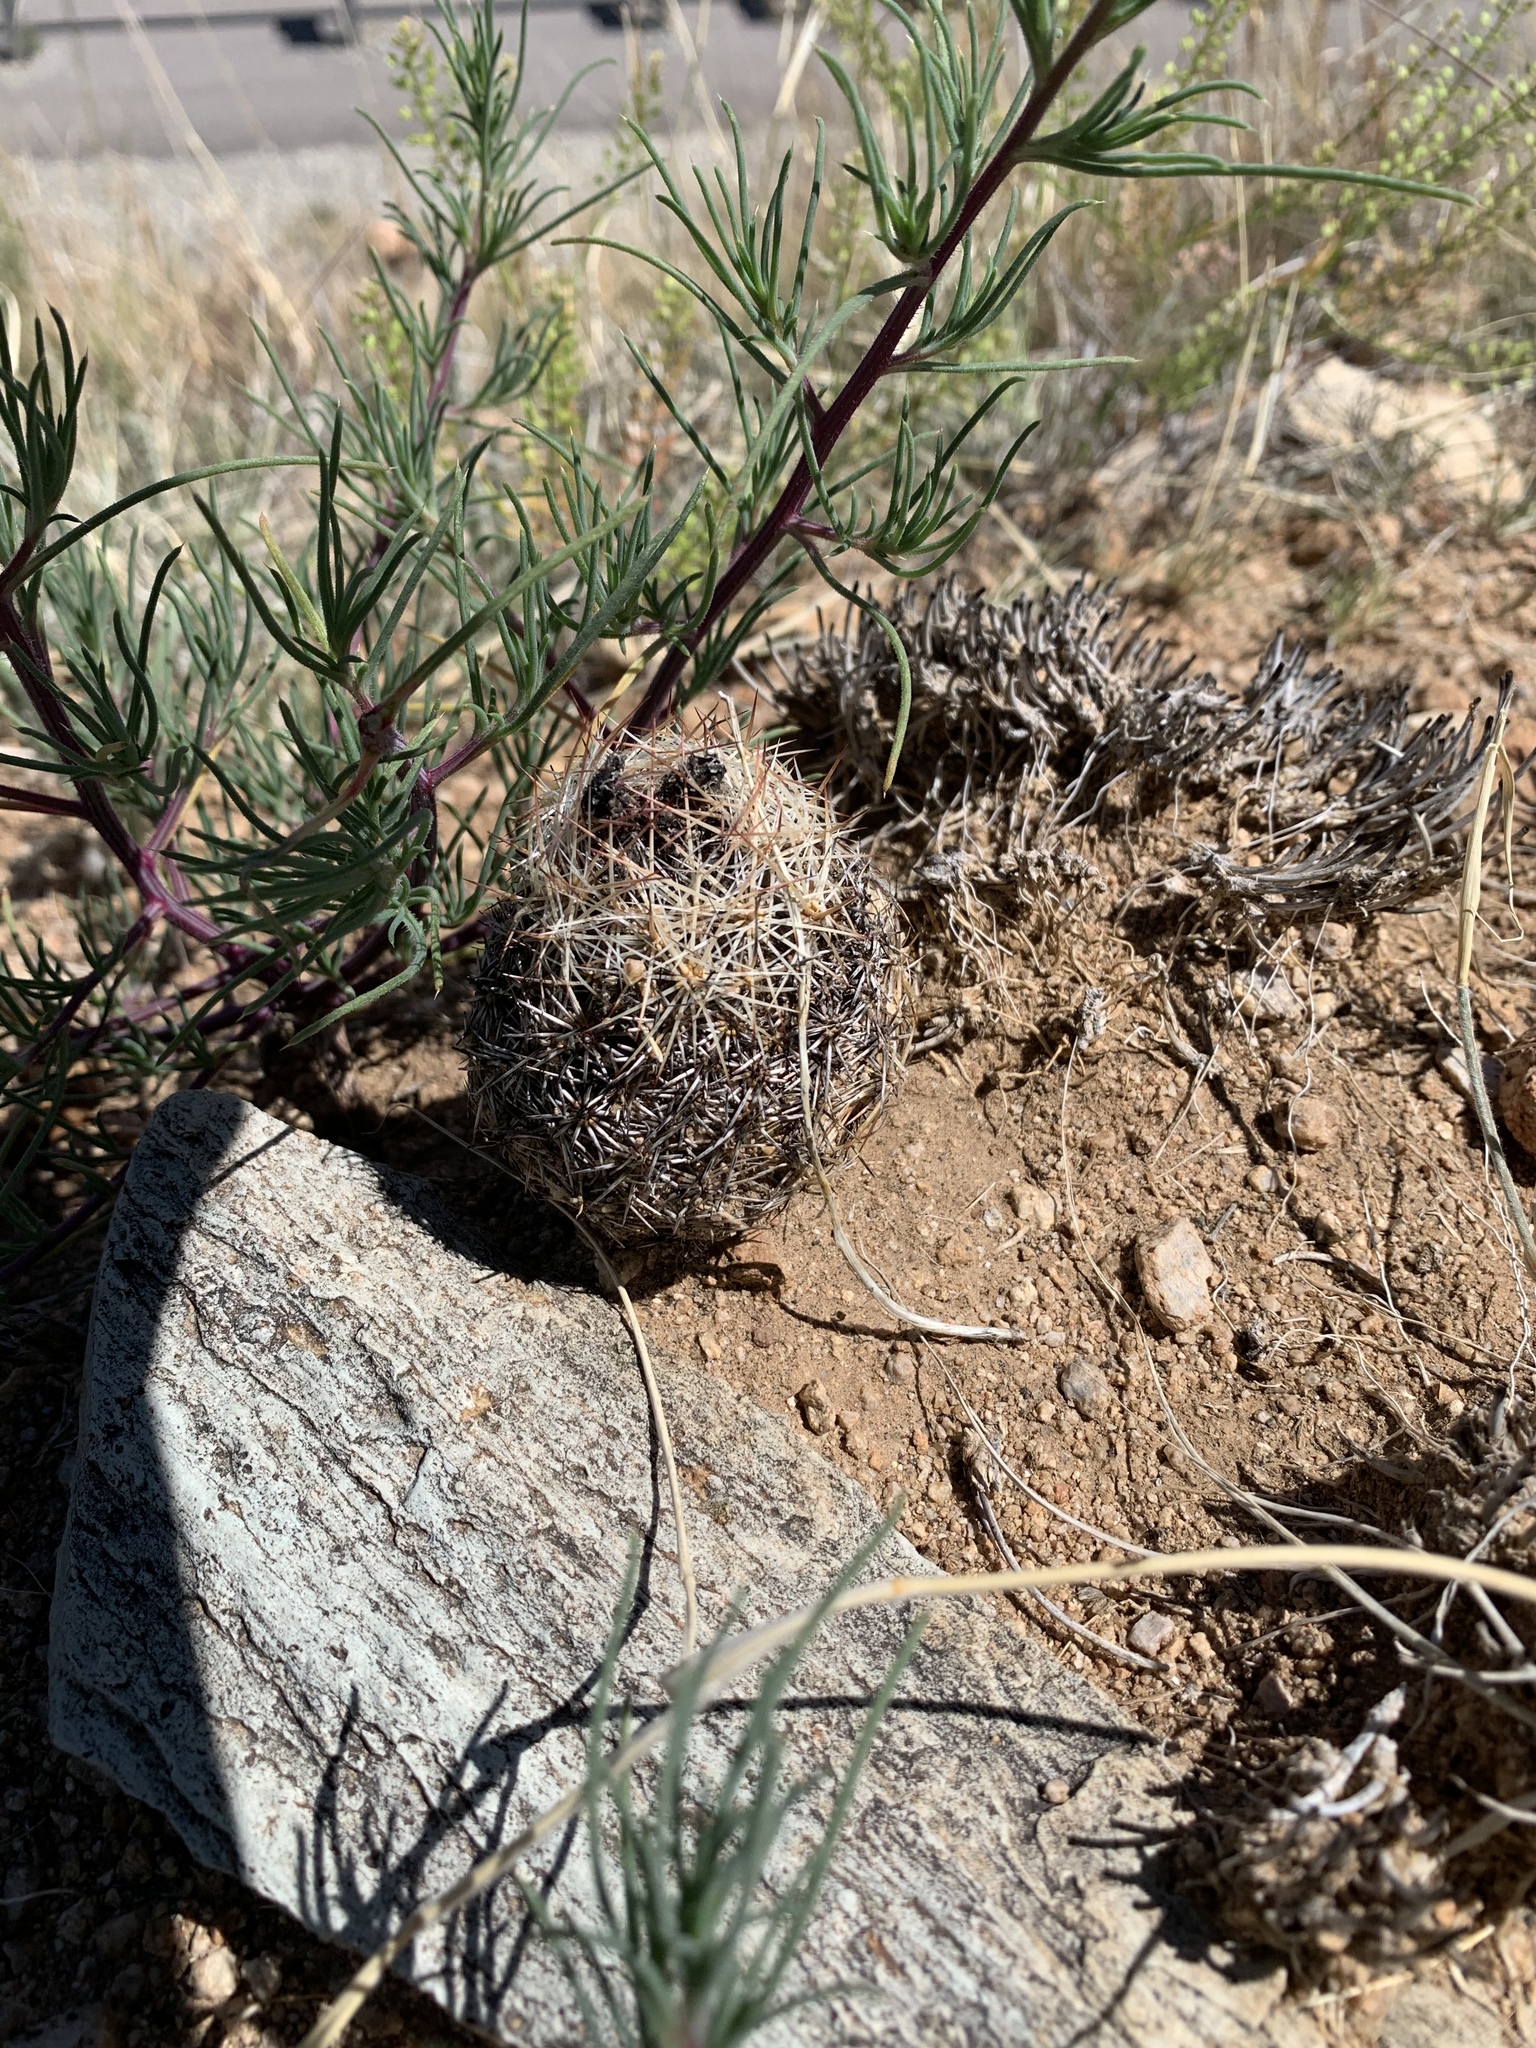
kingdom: Plantae
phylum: Tracheophyta
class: Magnoliopsida
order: Caryophyllales
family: Cactaceae
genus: Pelecyphora
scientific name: Pelecyphora vivipara
